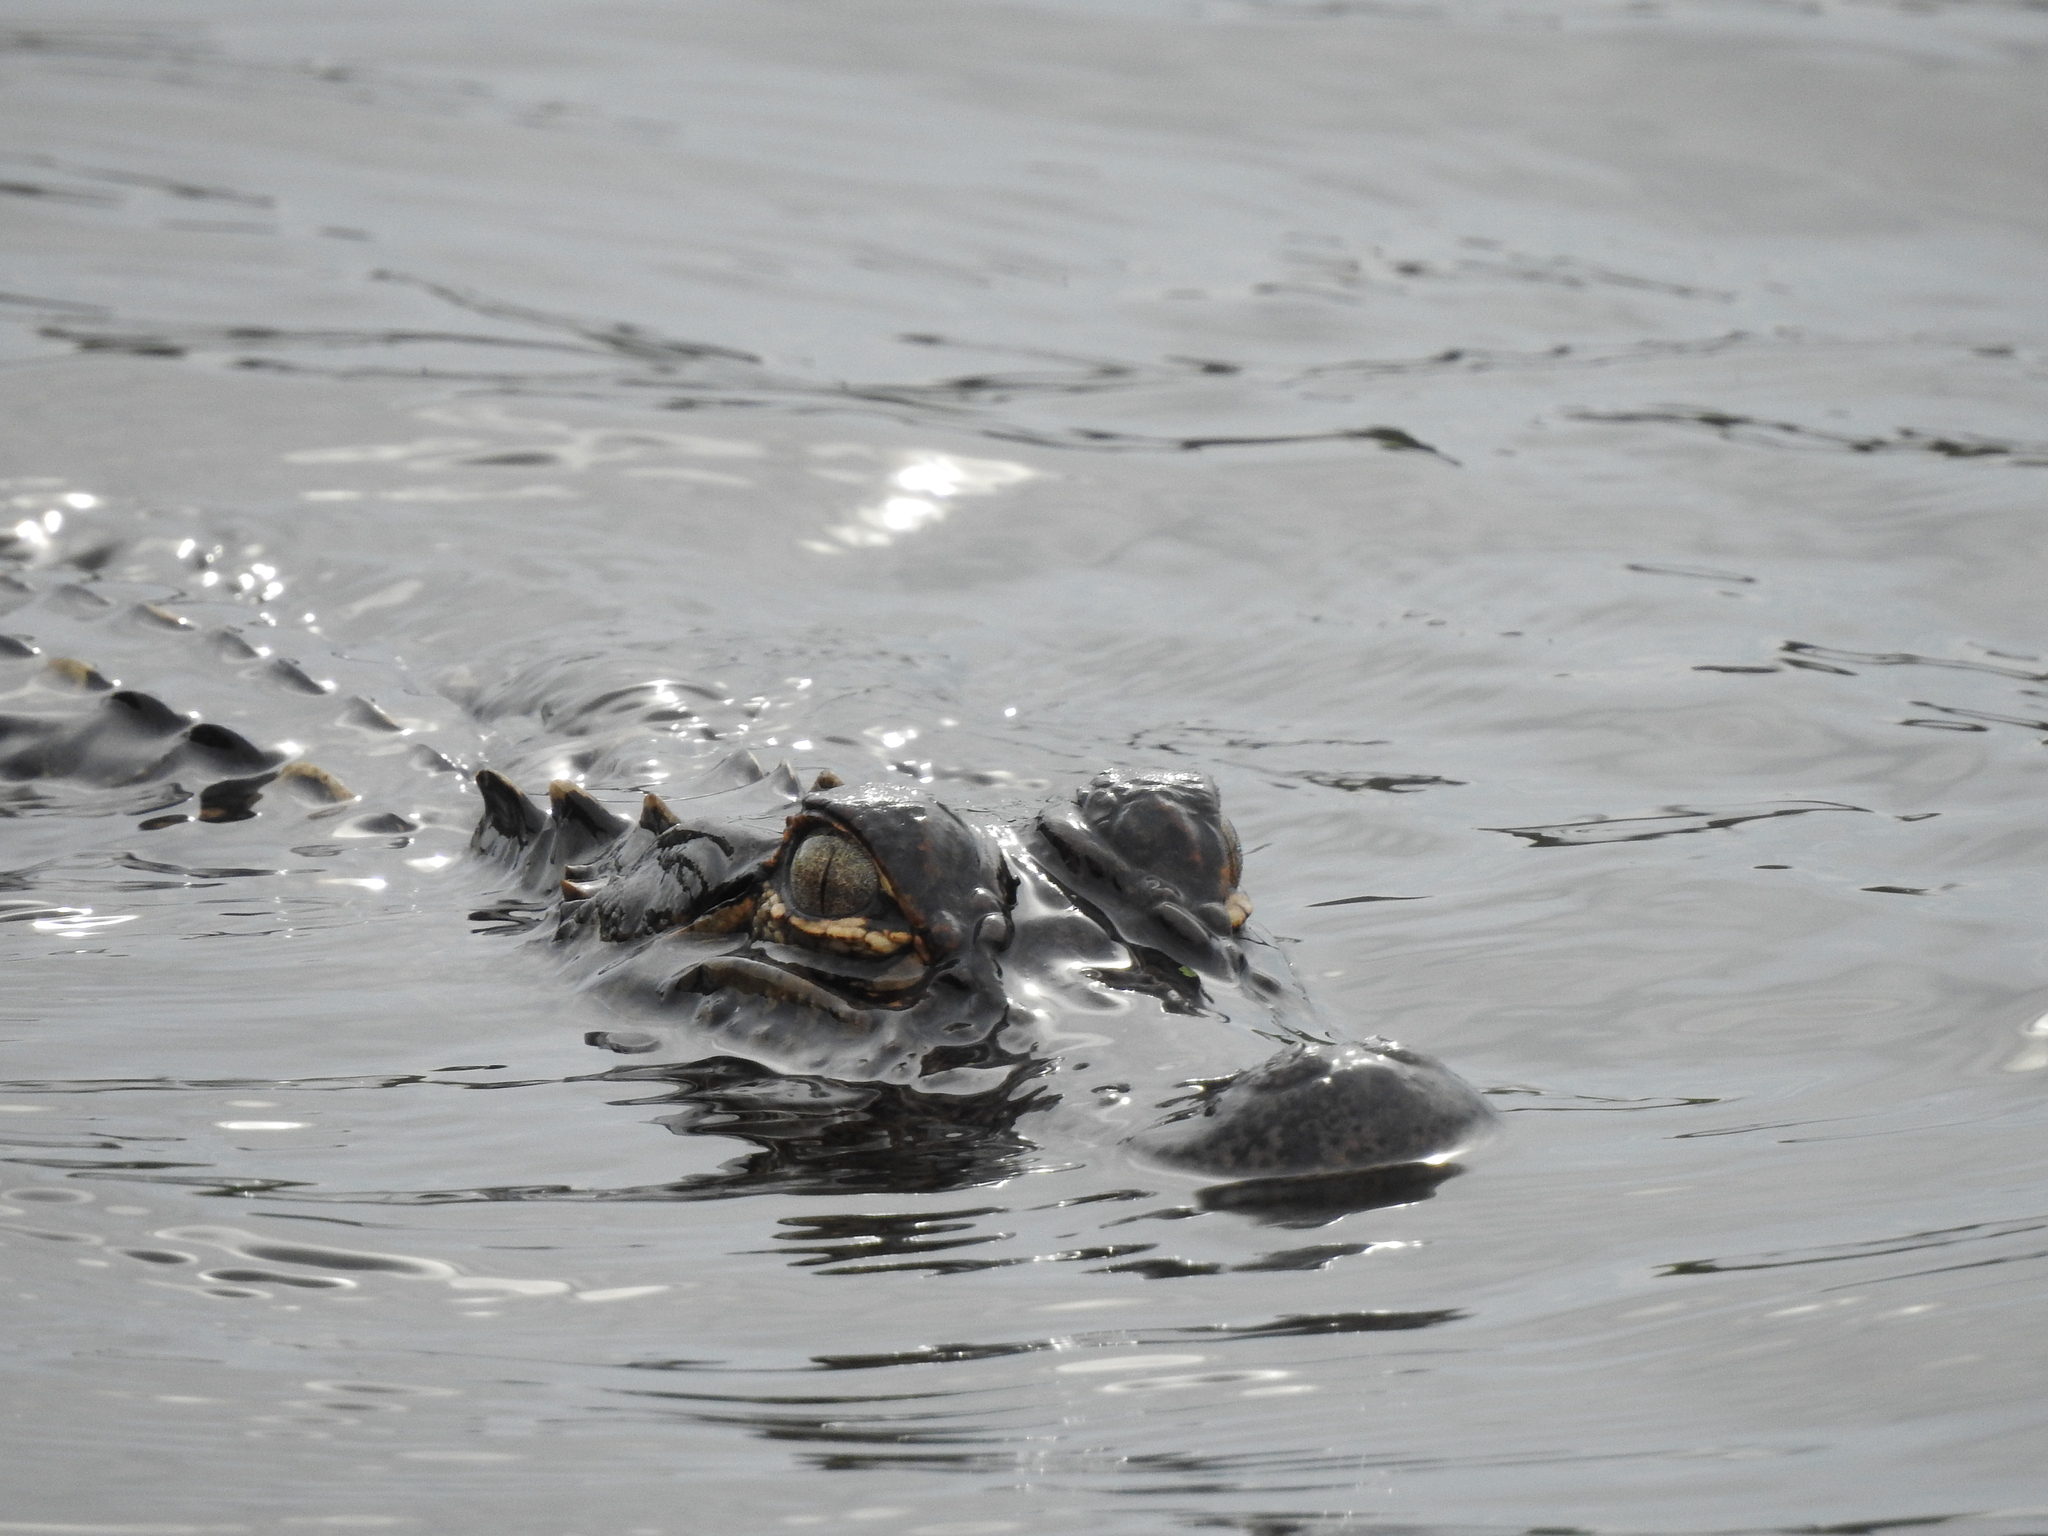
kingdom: Animalia
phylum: Chordata
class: Crocodylia
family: Alligatoridae
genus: Alligator
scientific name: Alligator mississippiensis
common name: American alligator
